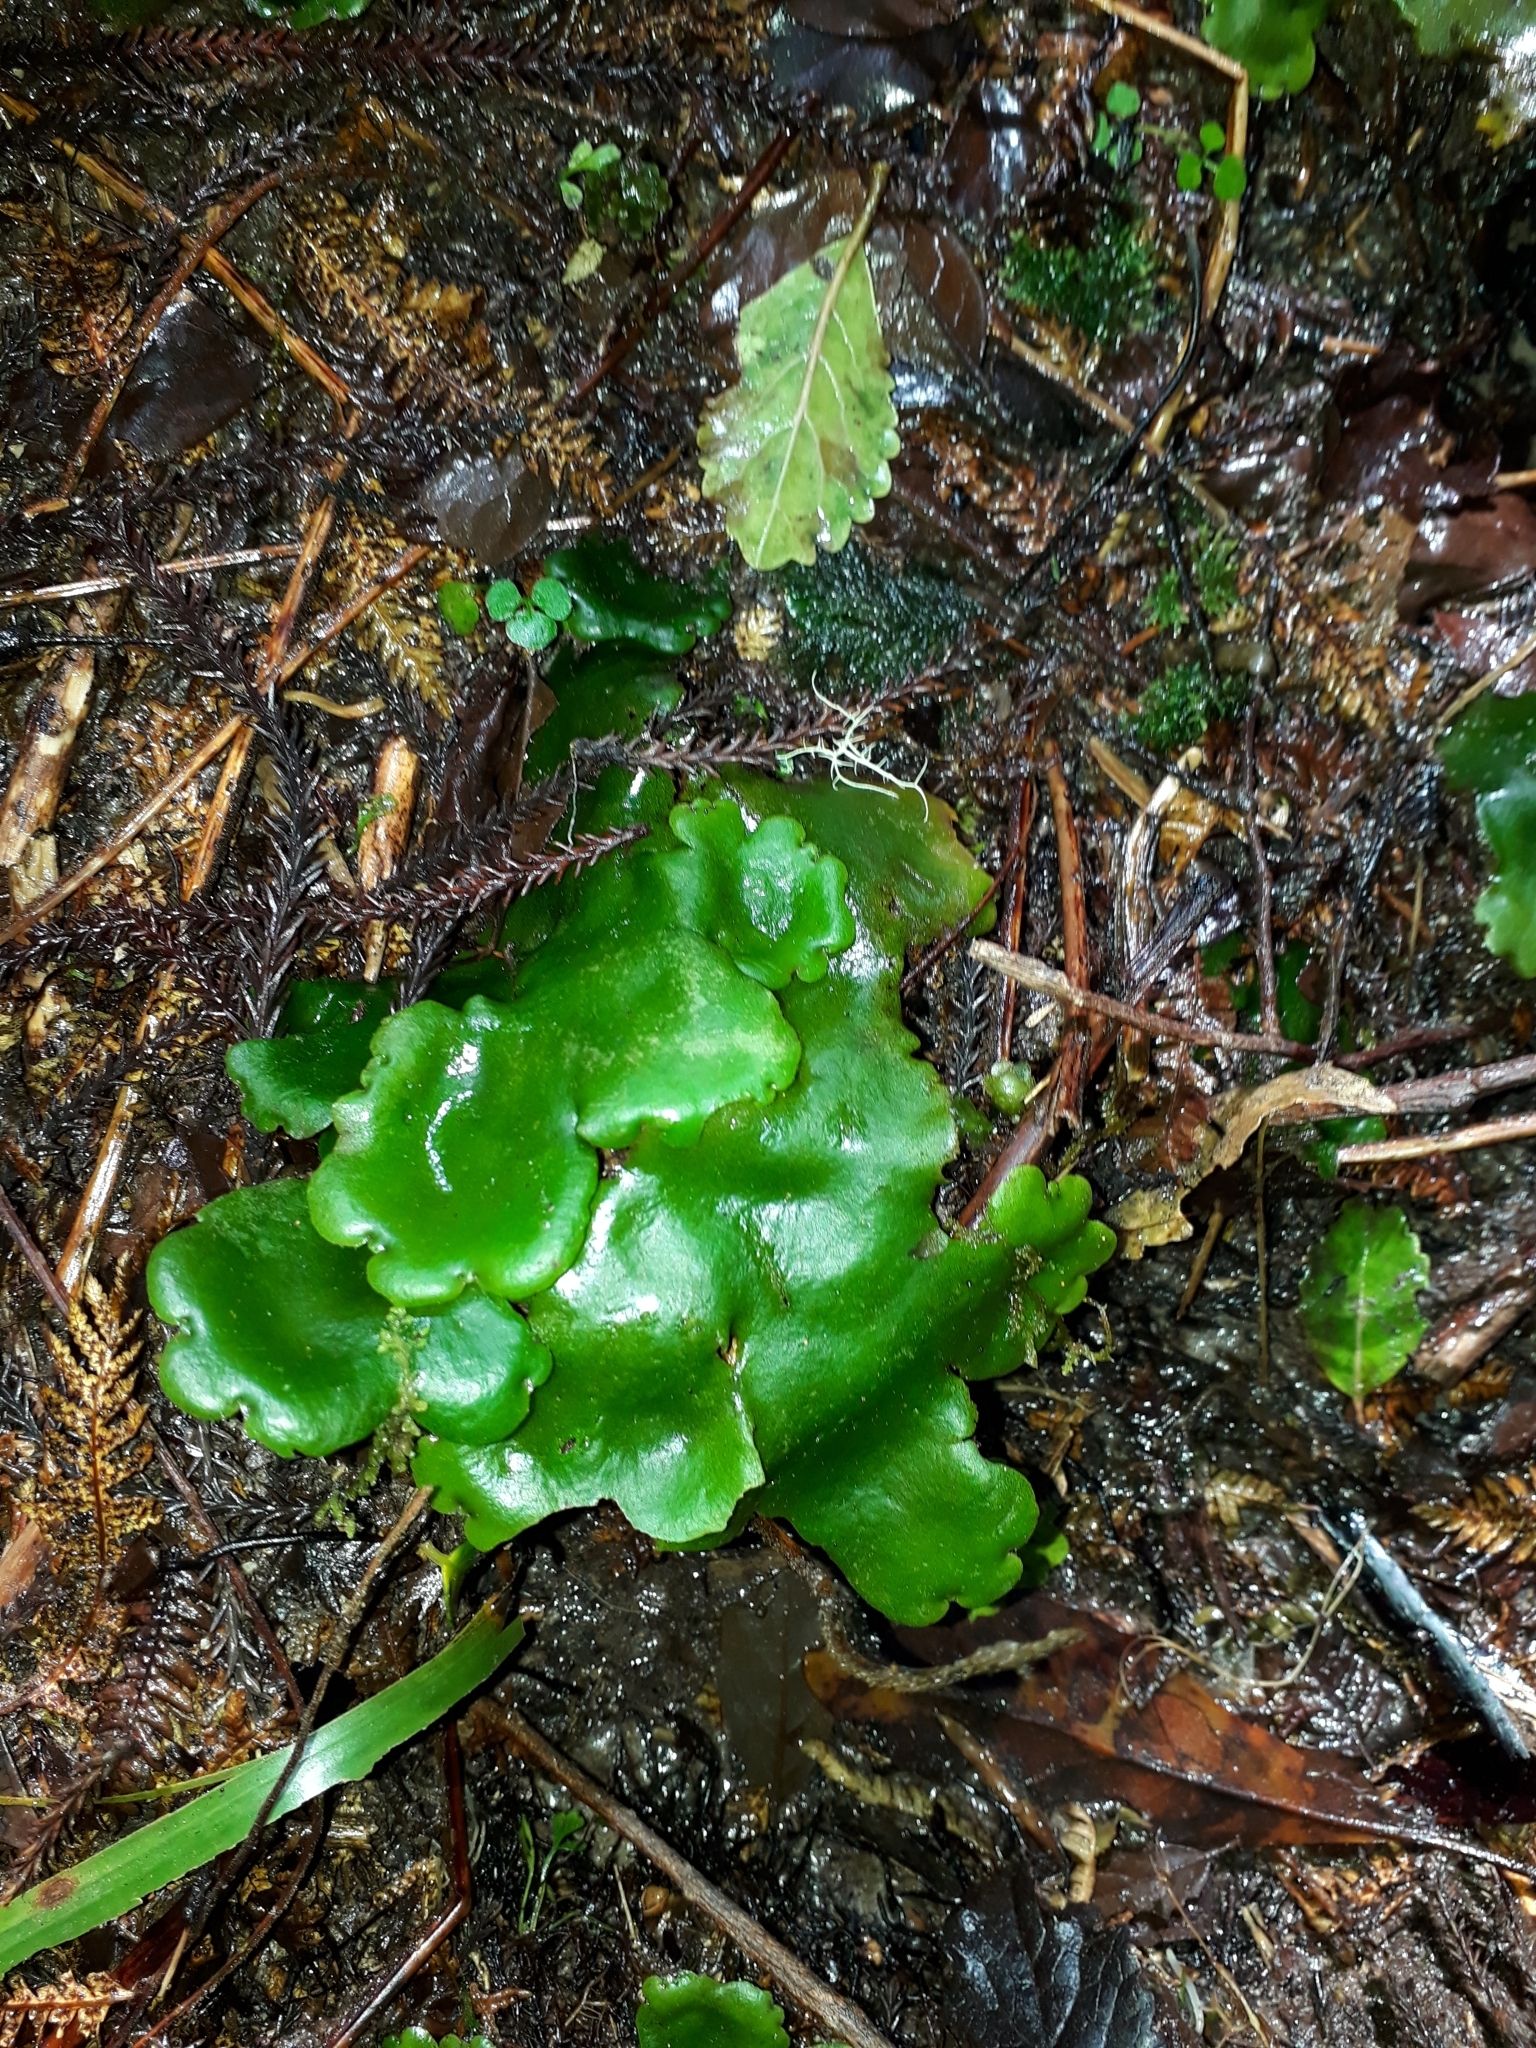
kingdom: Plantae
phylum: Marchantiophyta
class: Marchantiopsida
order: Marchantiales
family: Monocleaceae
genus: Monoclea
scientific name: Monoclea forsteri
